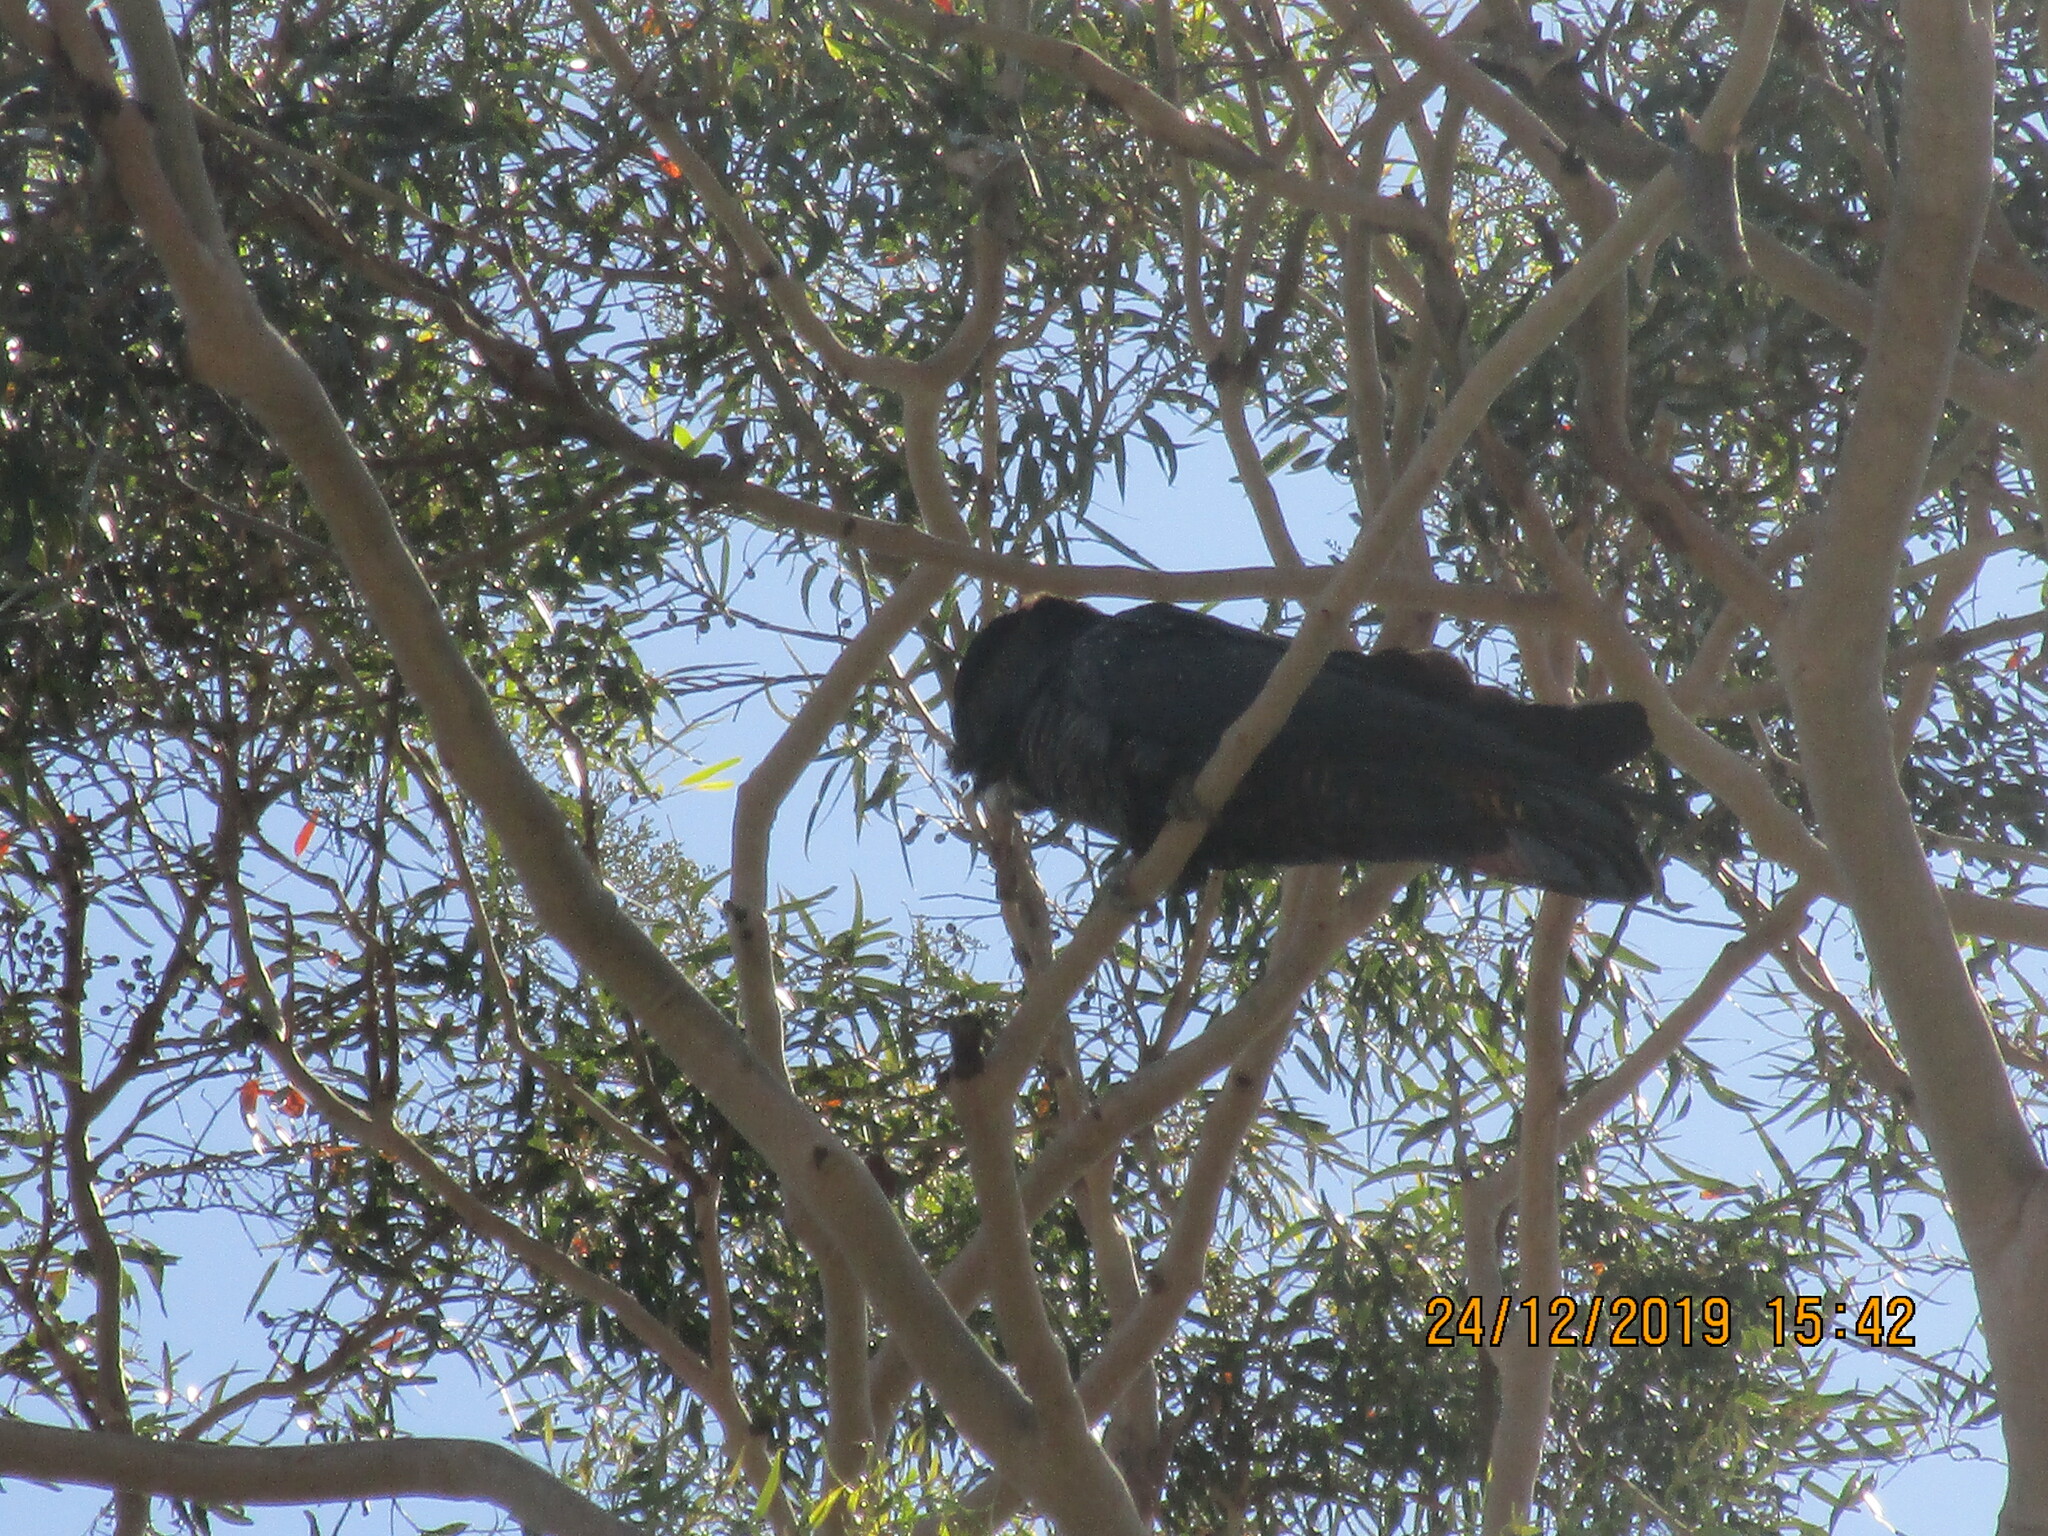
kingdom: Animalia
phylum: Chordata
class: Aves
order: Psittaciformes
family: Psittacidae
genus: Calyptorhynchus
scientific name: Calyptorhynchus banksii
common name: Red-tailed black cockatoo
